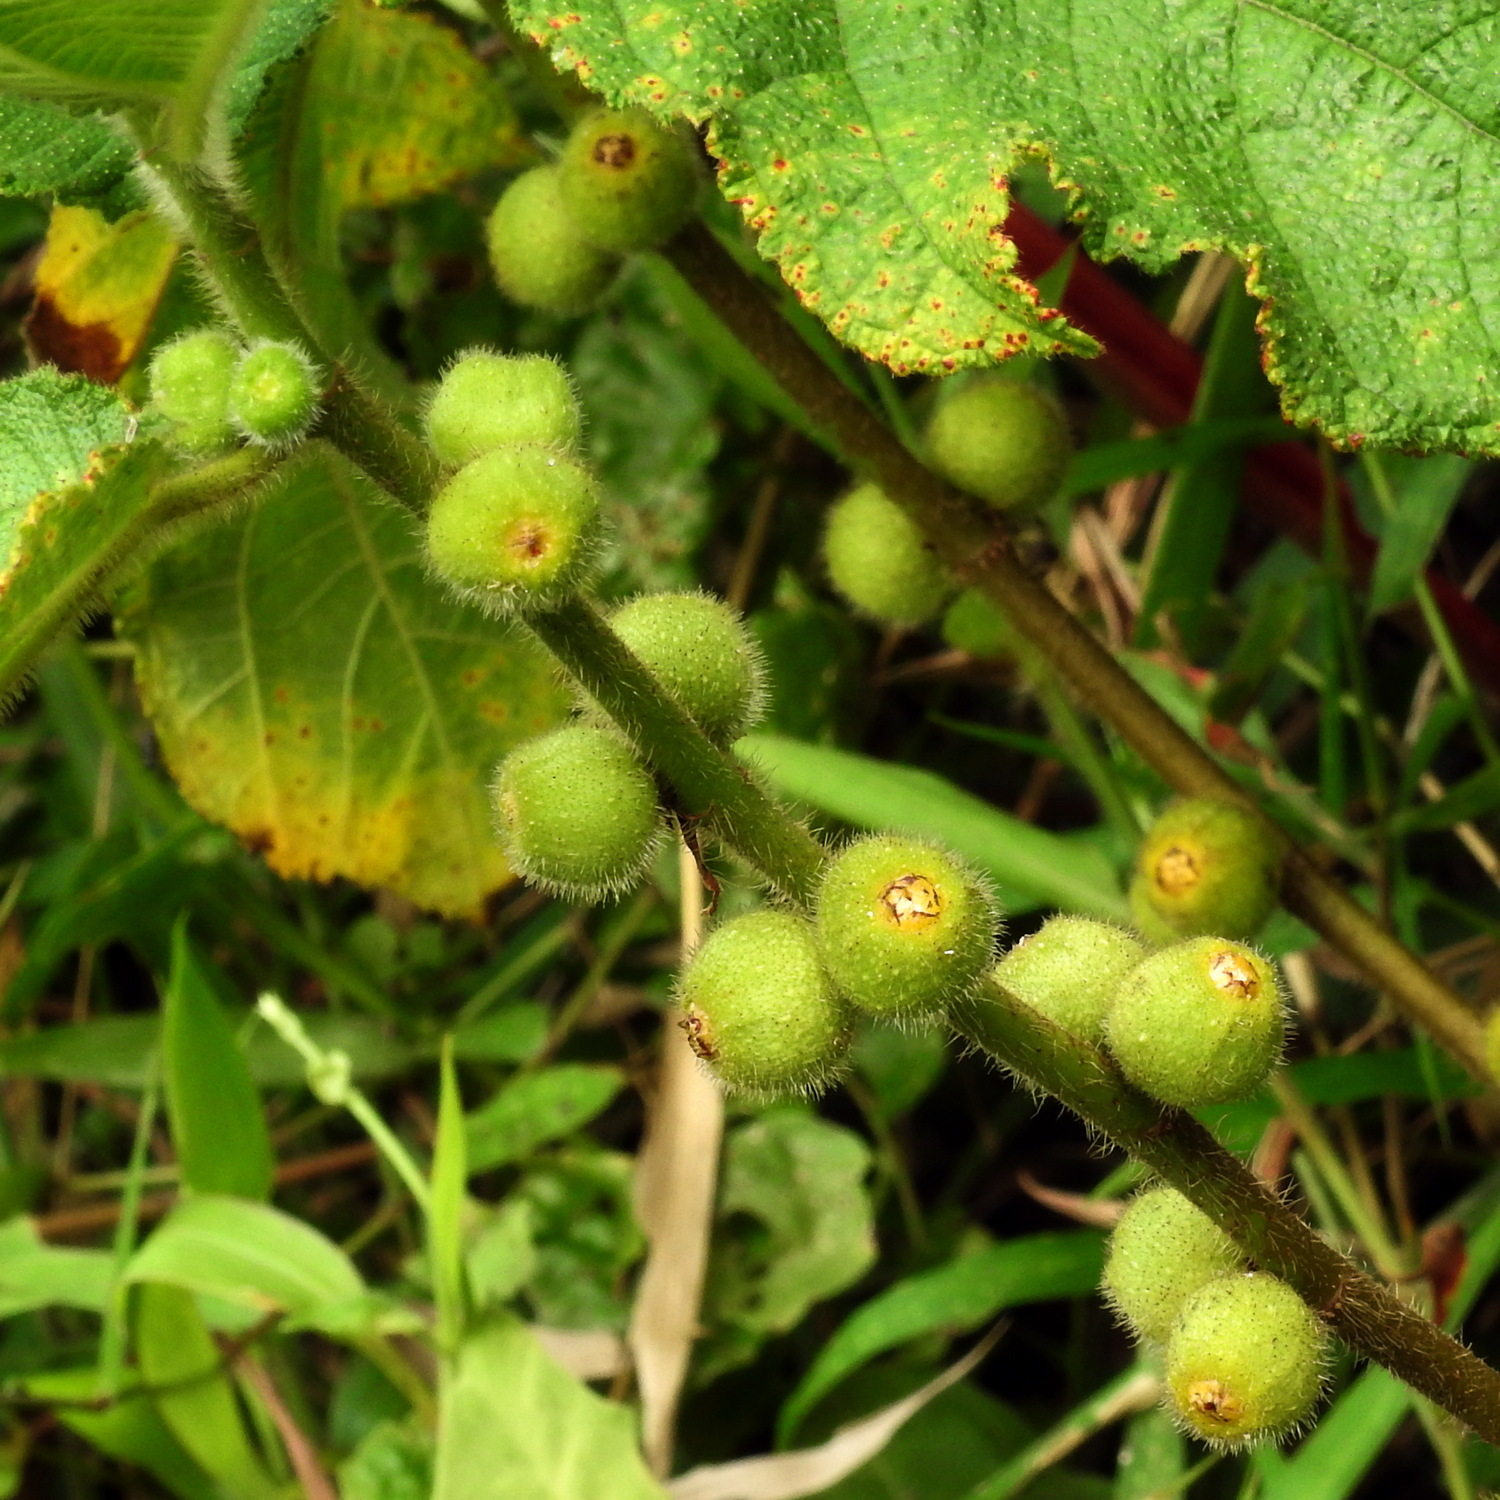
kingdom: Plantae
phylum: Tracheophyta
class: Magnoliopsida
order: Rosales
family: Moraceae
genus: Ficus
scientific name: Ficus simplicissima
